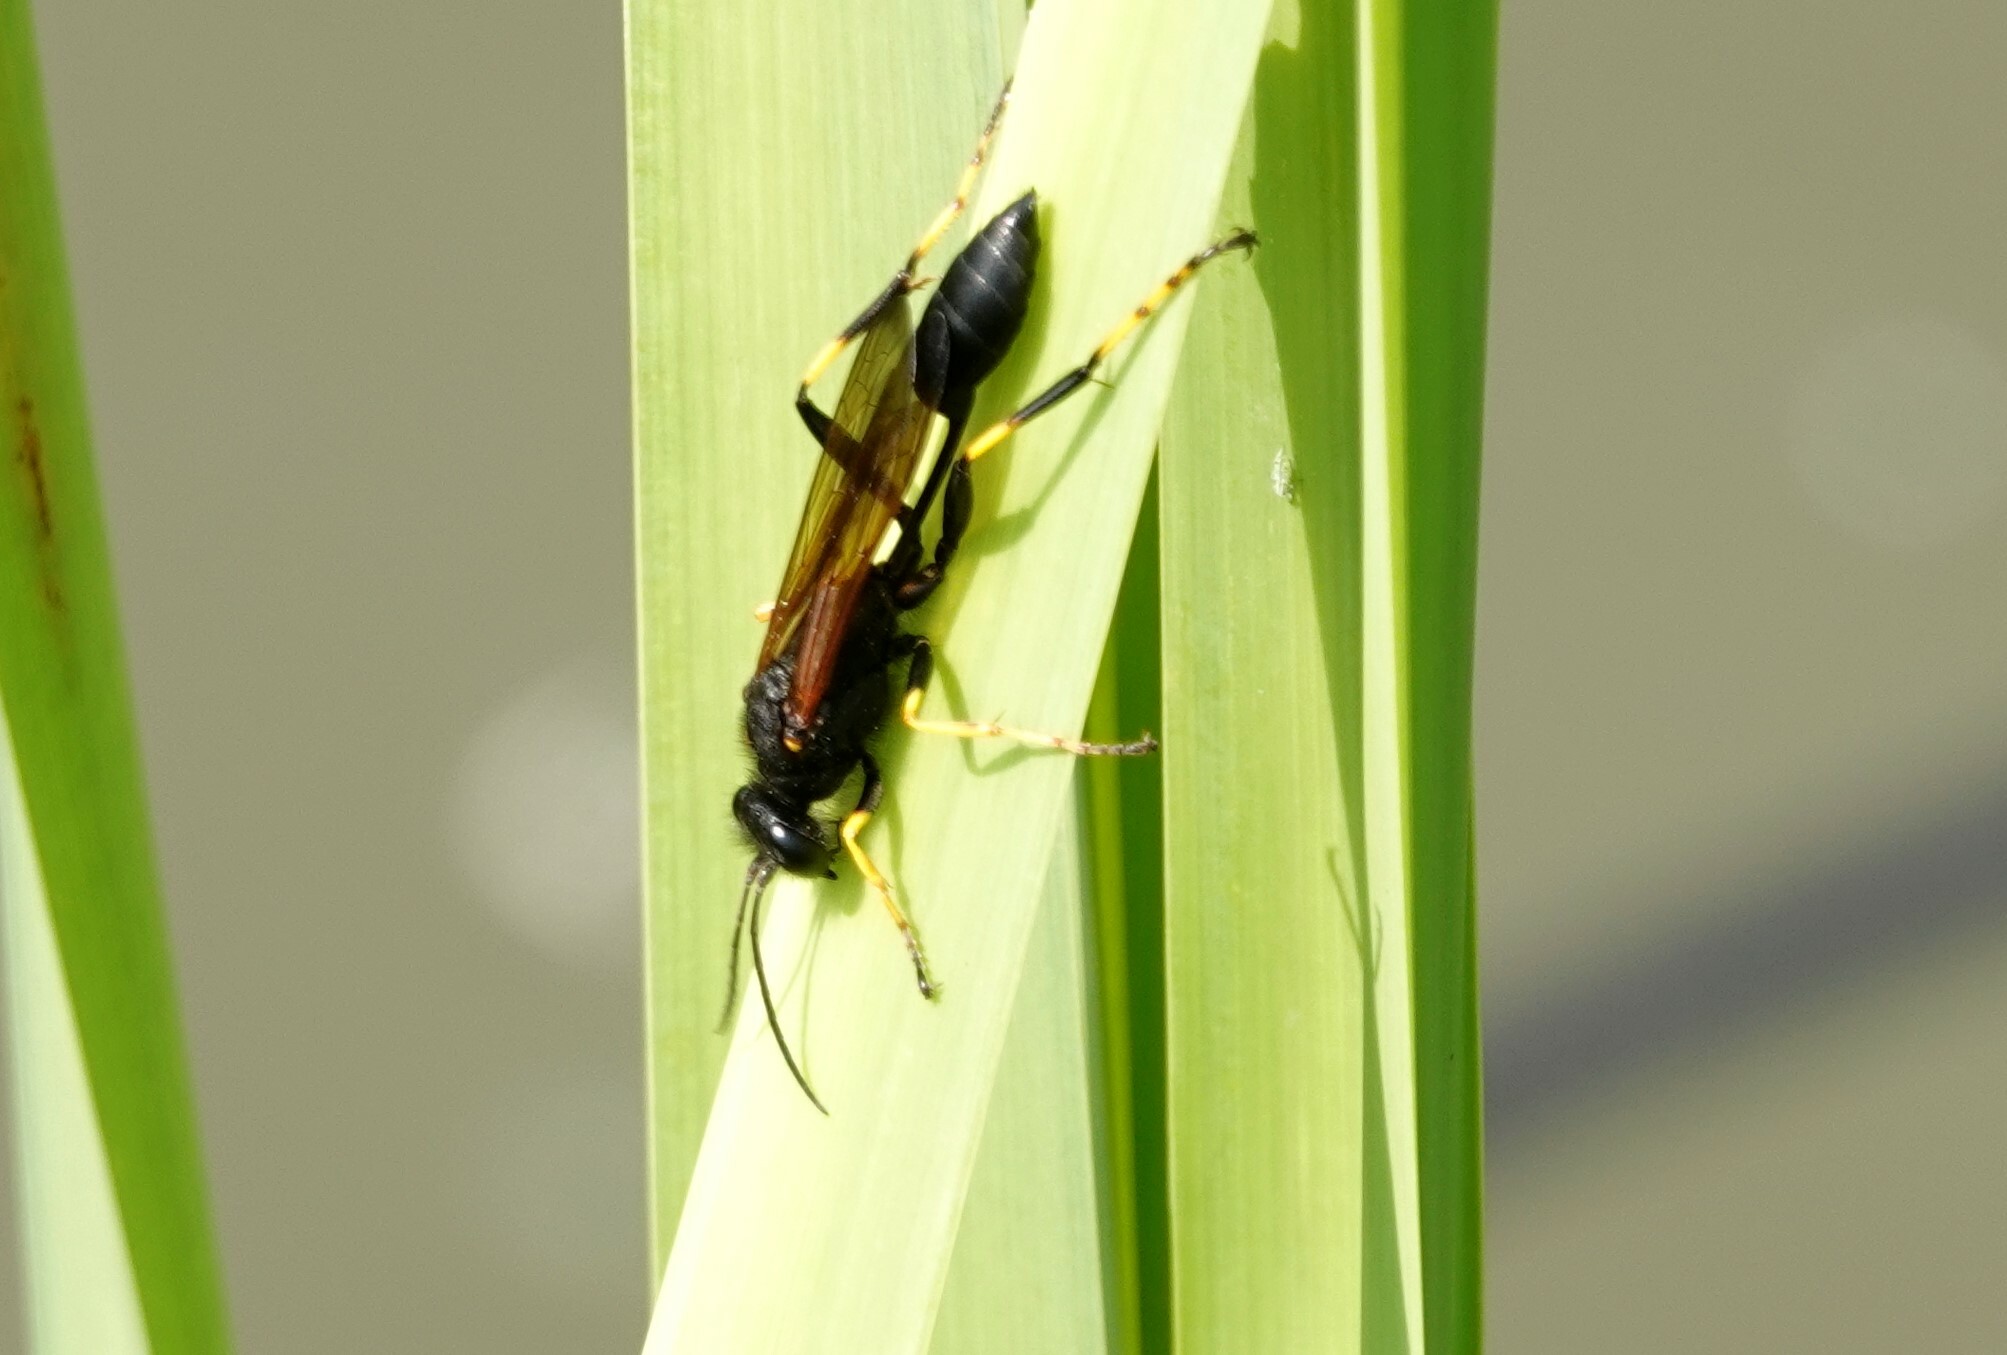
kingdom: Animalia
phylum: Arthropoda
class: Insecta
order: Hymenoptera
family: Sphecidae
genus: Sceliphron
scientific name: Sceliphron caementarium
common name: Mud dauber
